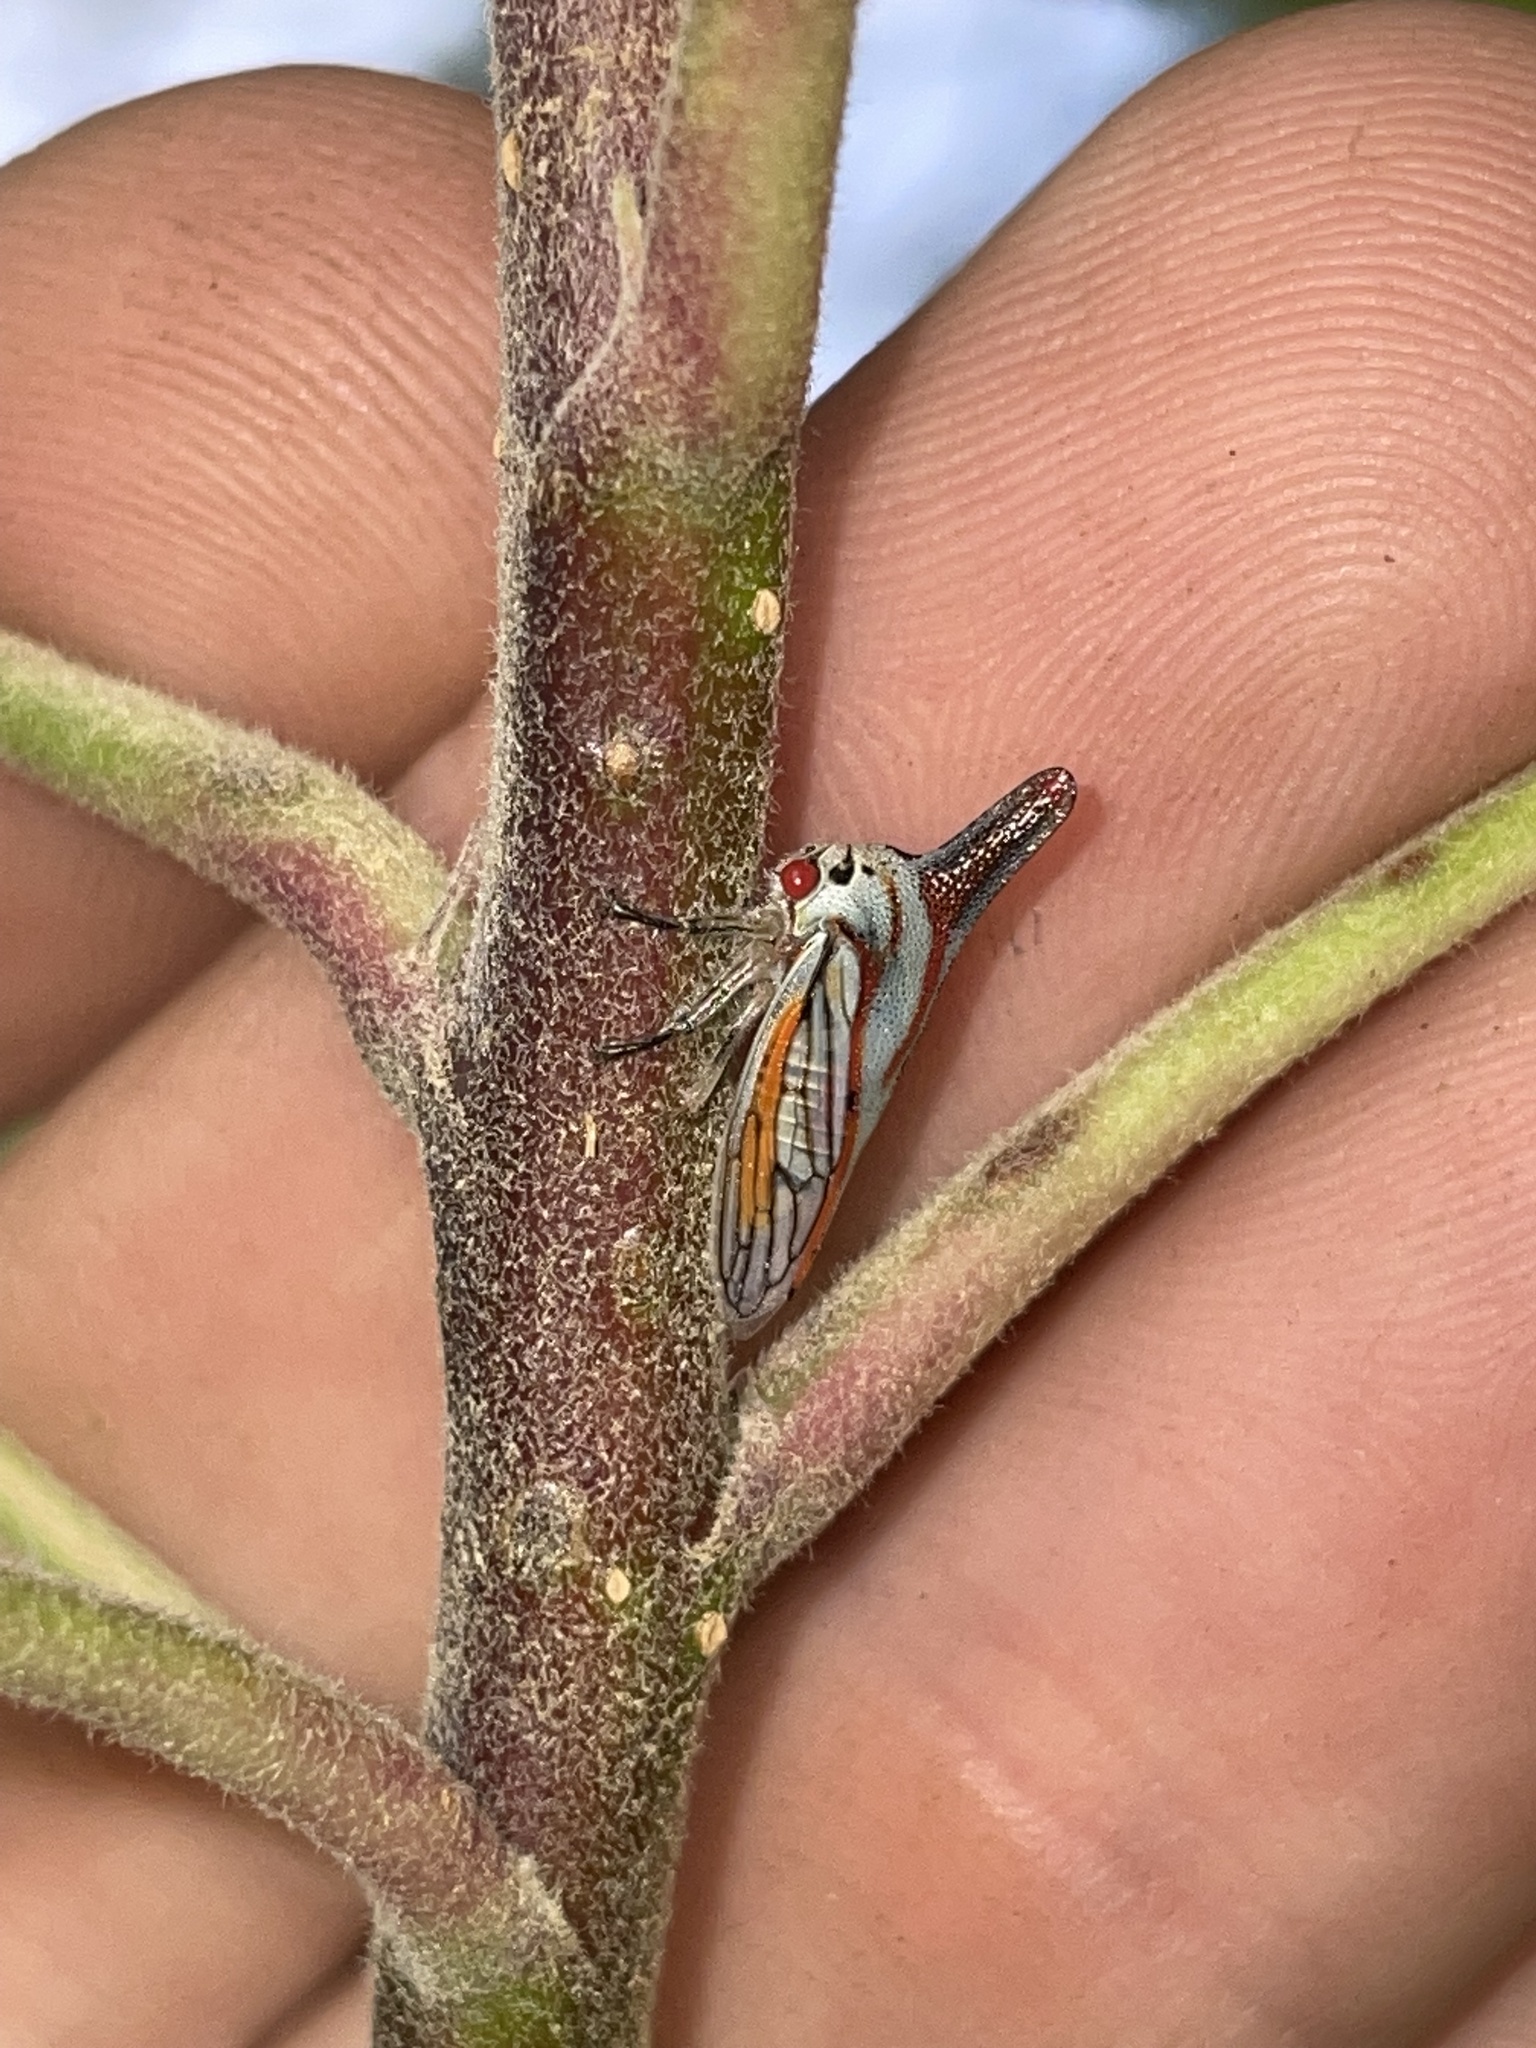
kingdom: Animalia
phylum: Arthropoda
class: Insecta
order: Hemiptera
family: Membracidae
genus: Platycotis
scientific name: Platycotis vittatus
